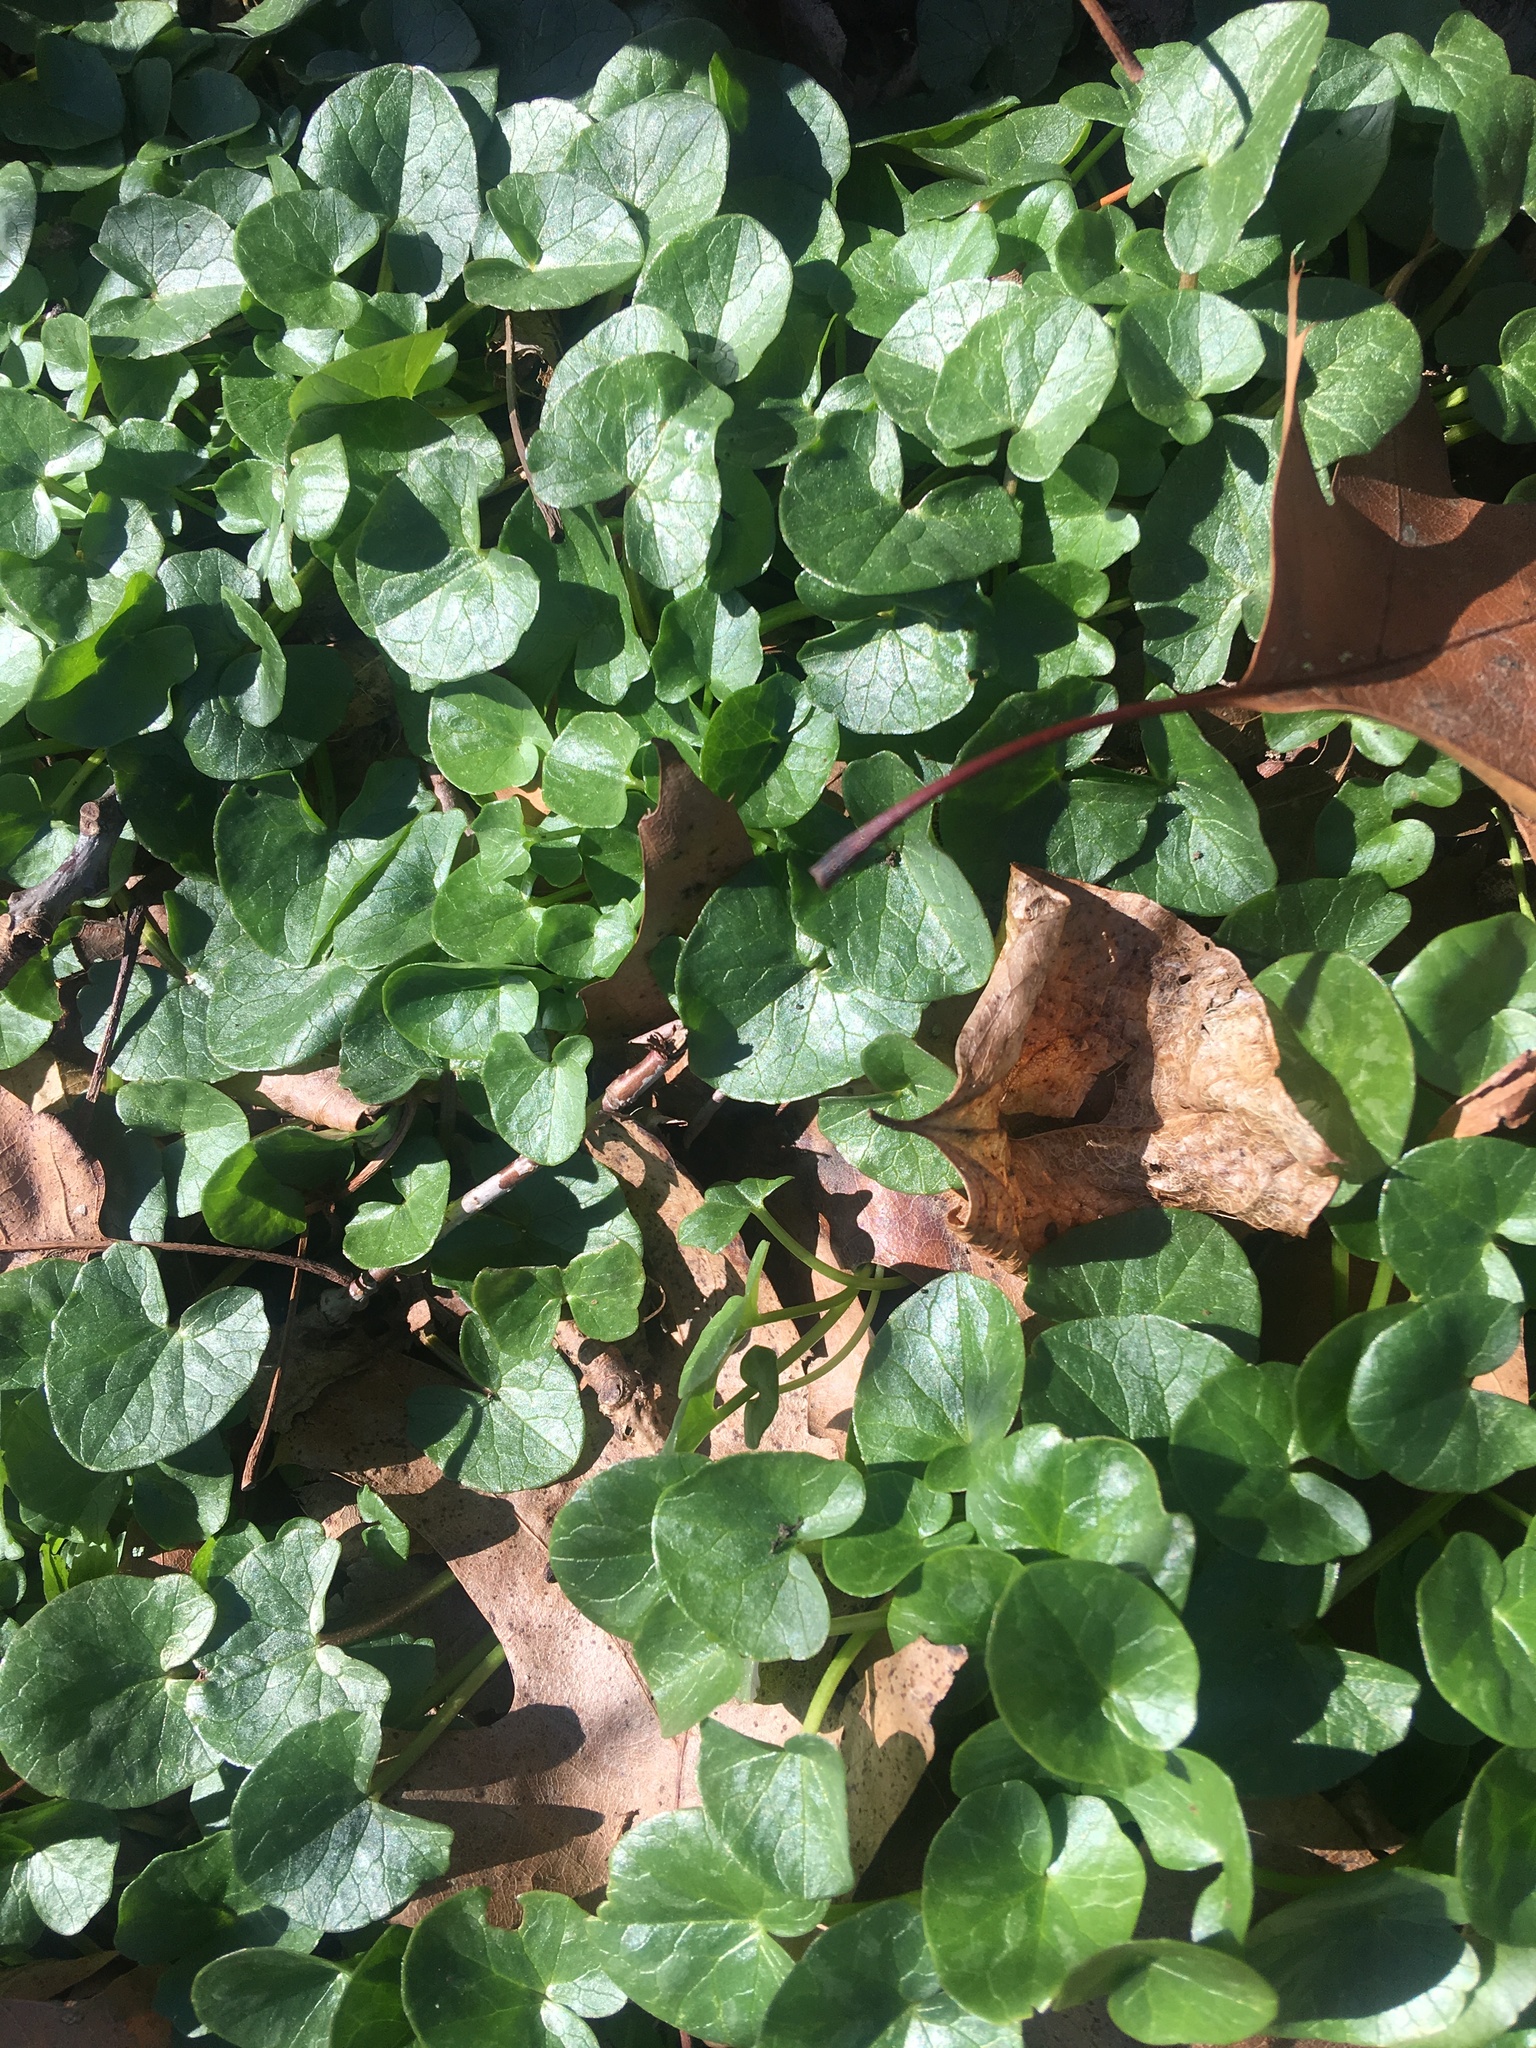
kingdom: Plantae
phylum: Tracheophyta
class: Magnoliopsida
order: Ranunculales
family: Ranunculaceae
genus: Ficaria
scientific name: Ficaria verna
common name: Lesser celandine
